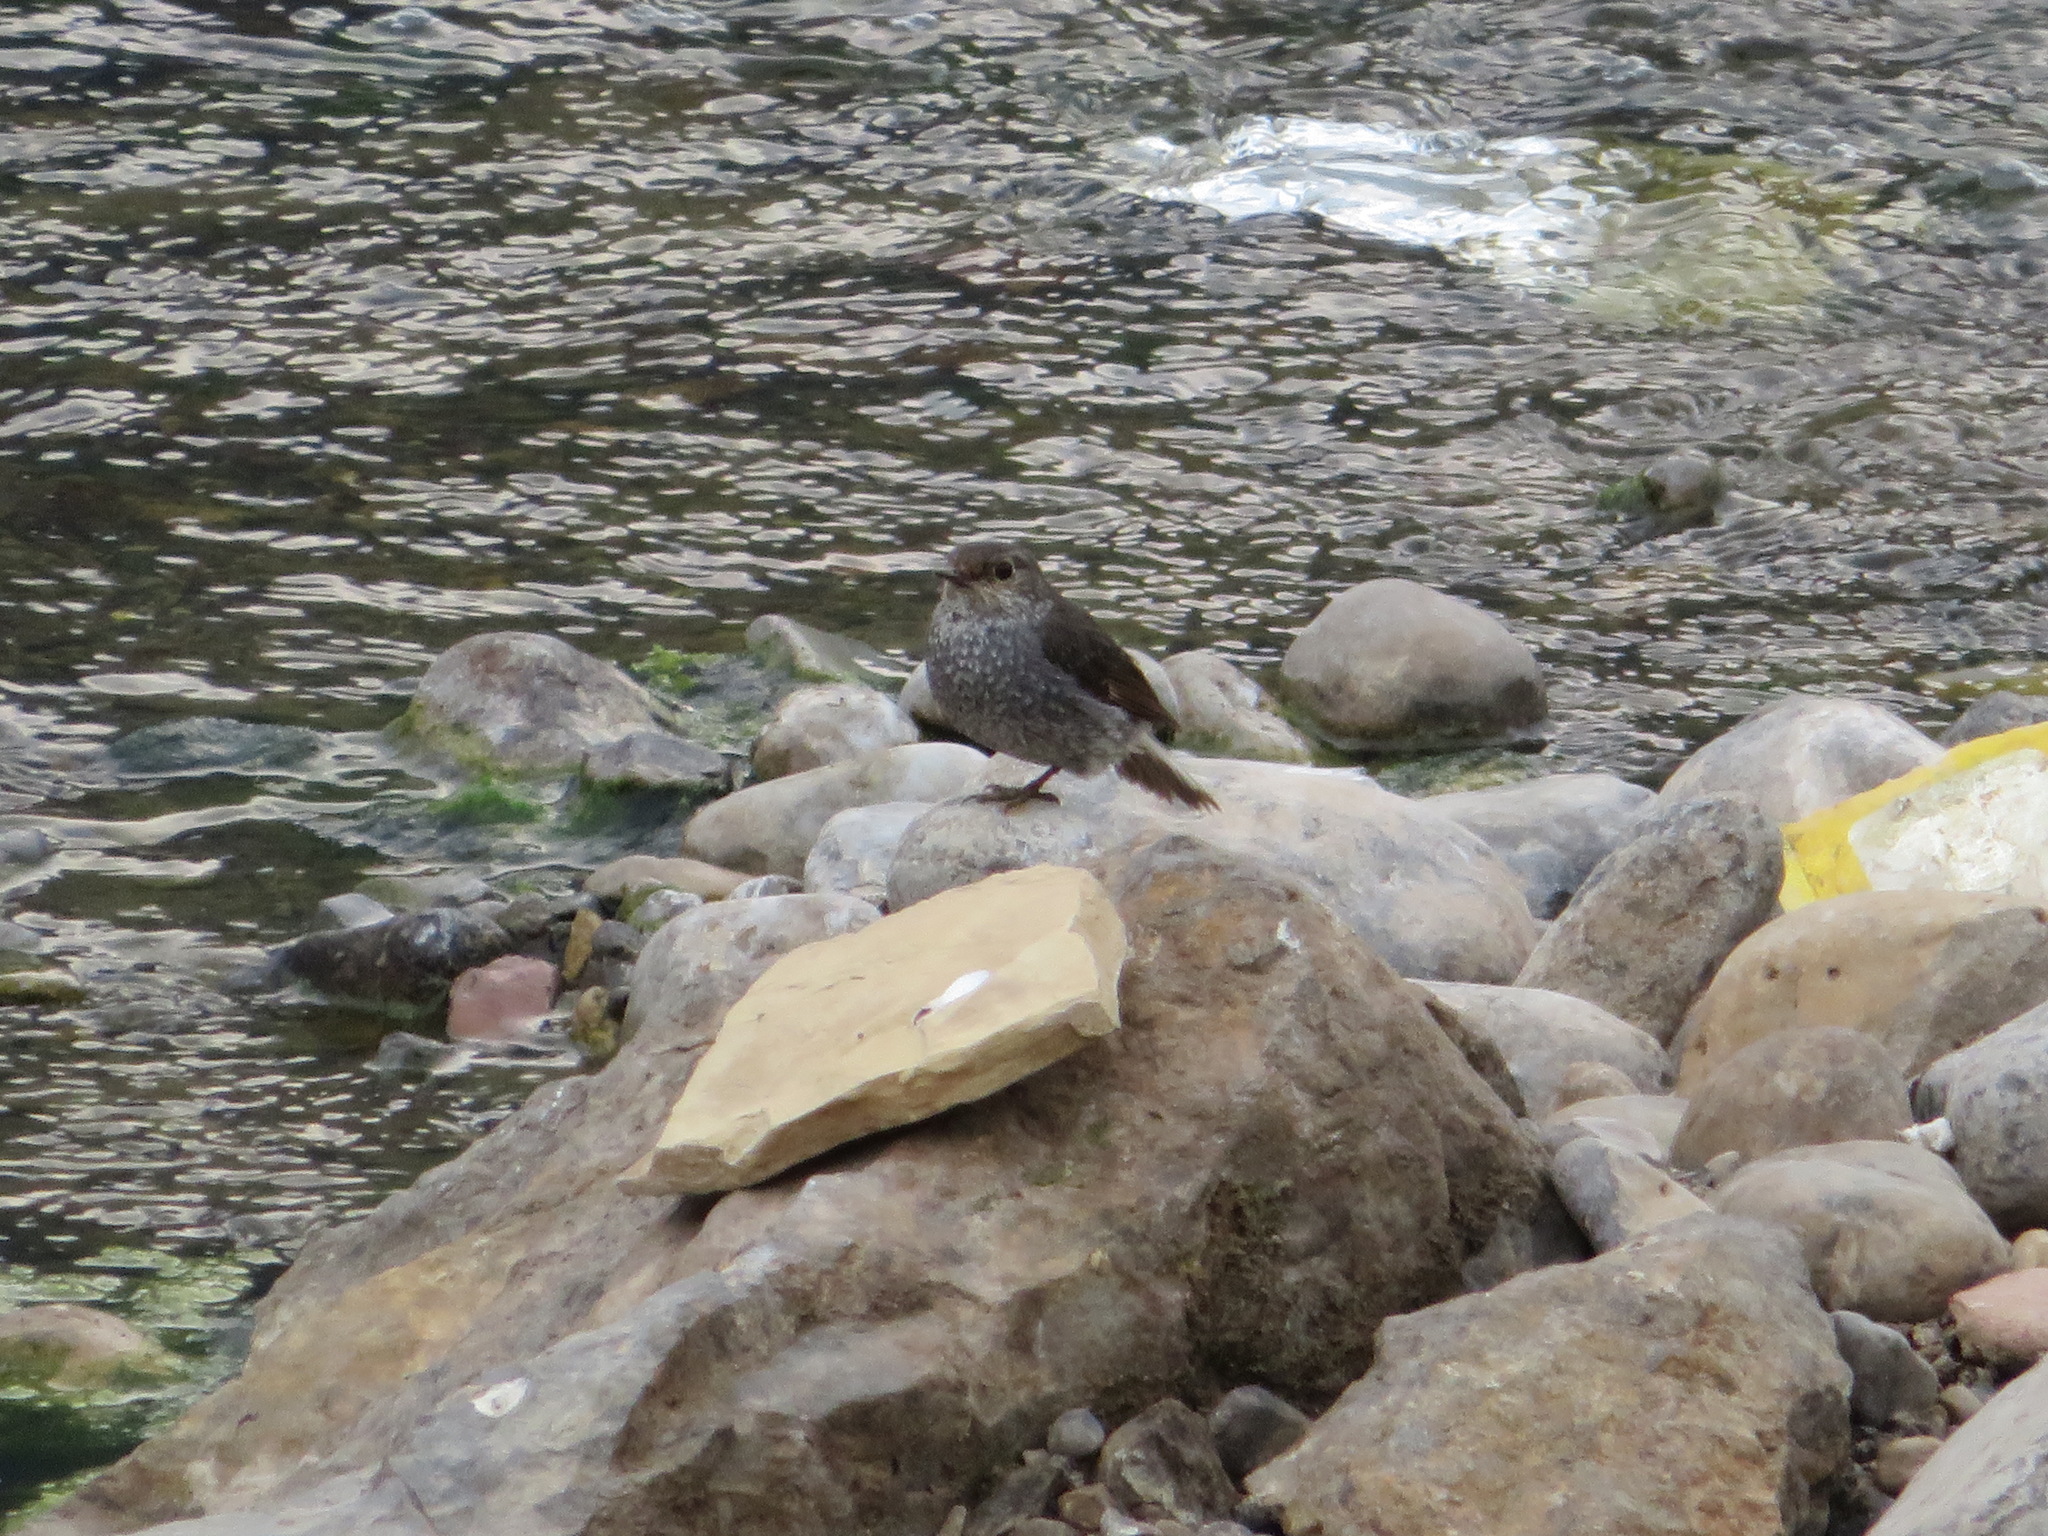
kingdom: Animalia
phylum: Chordata
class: Aves
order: Passeriformes
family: Muscicapidae
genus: Phoenicurus
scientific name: Phoenicurus fuliginosus
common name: Plumbeous water redstart
